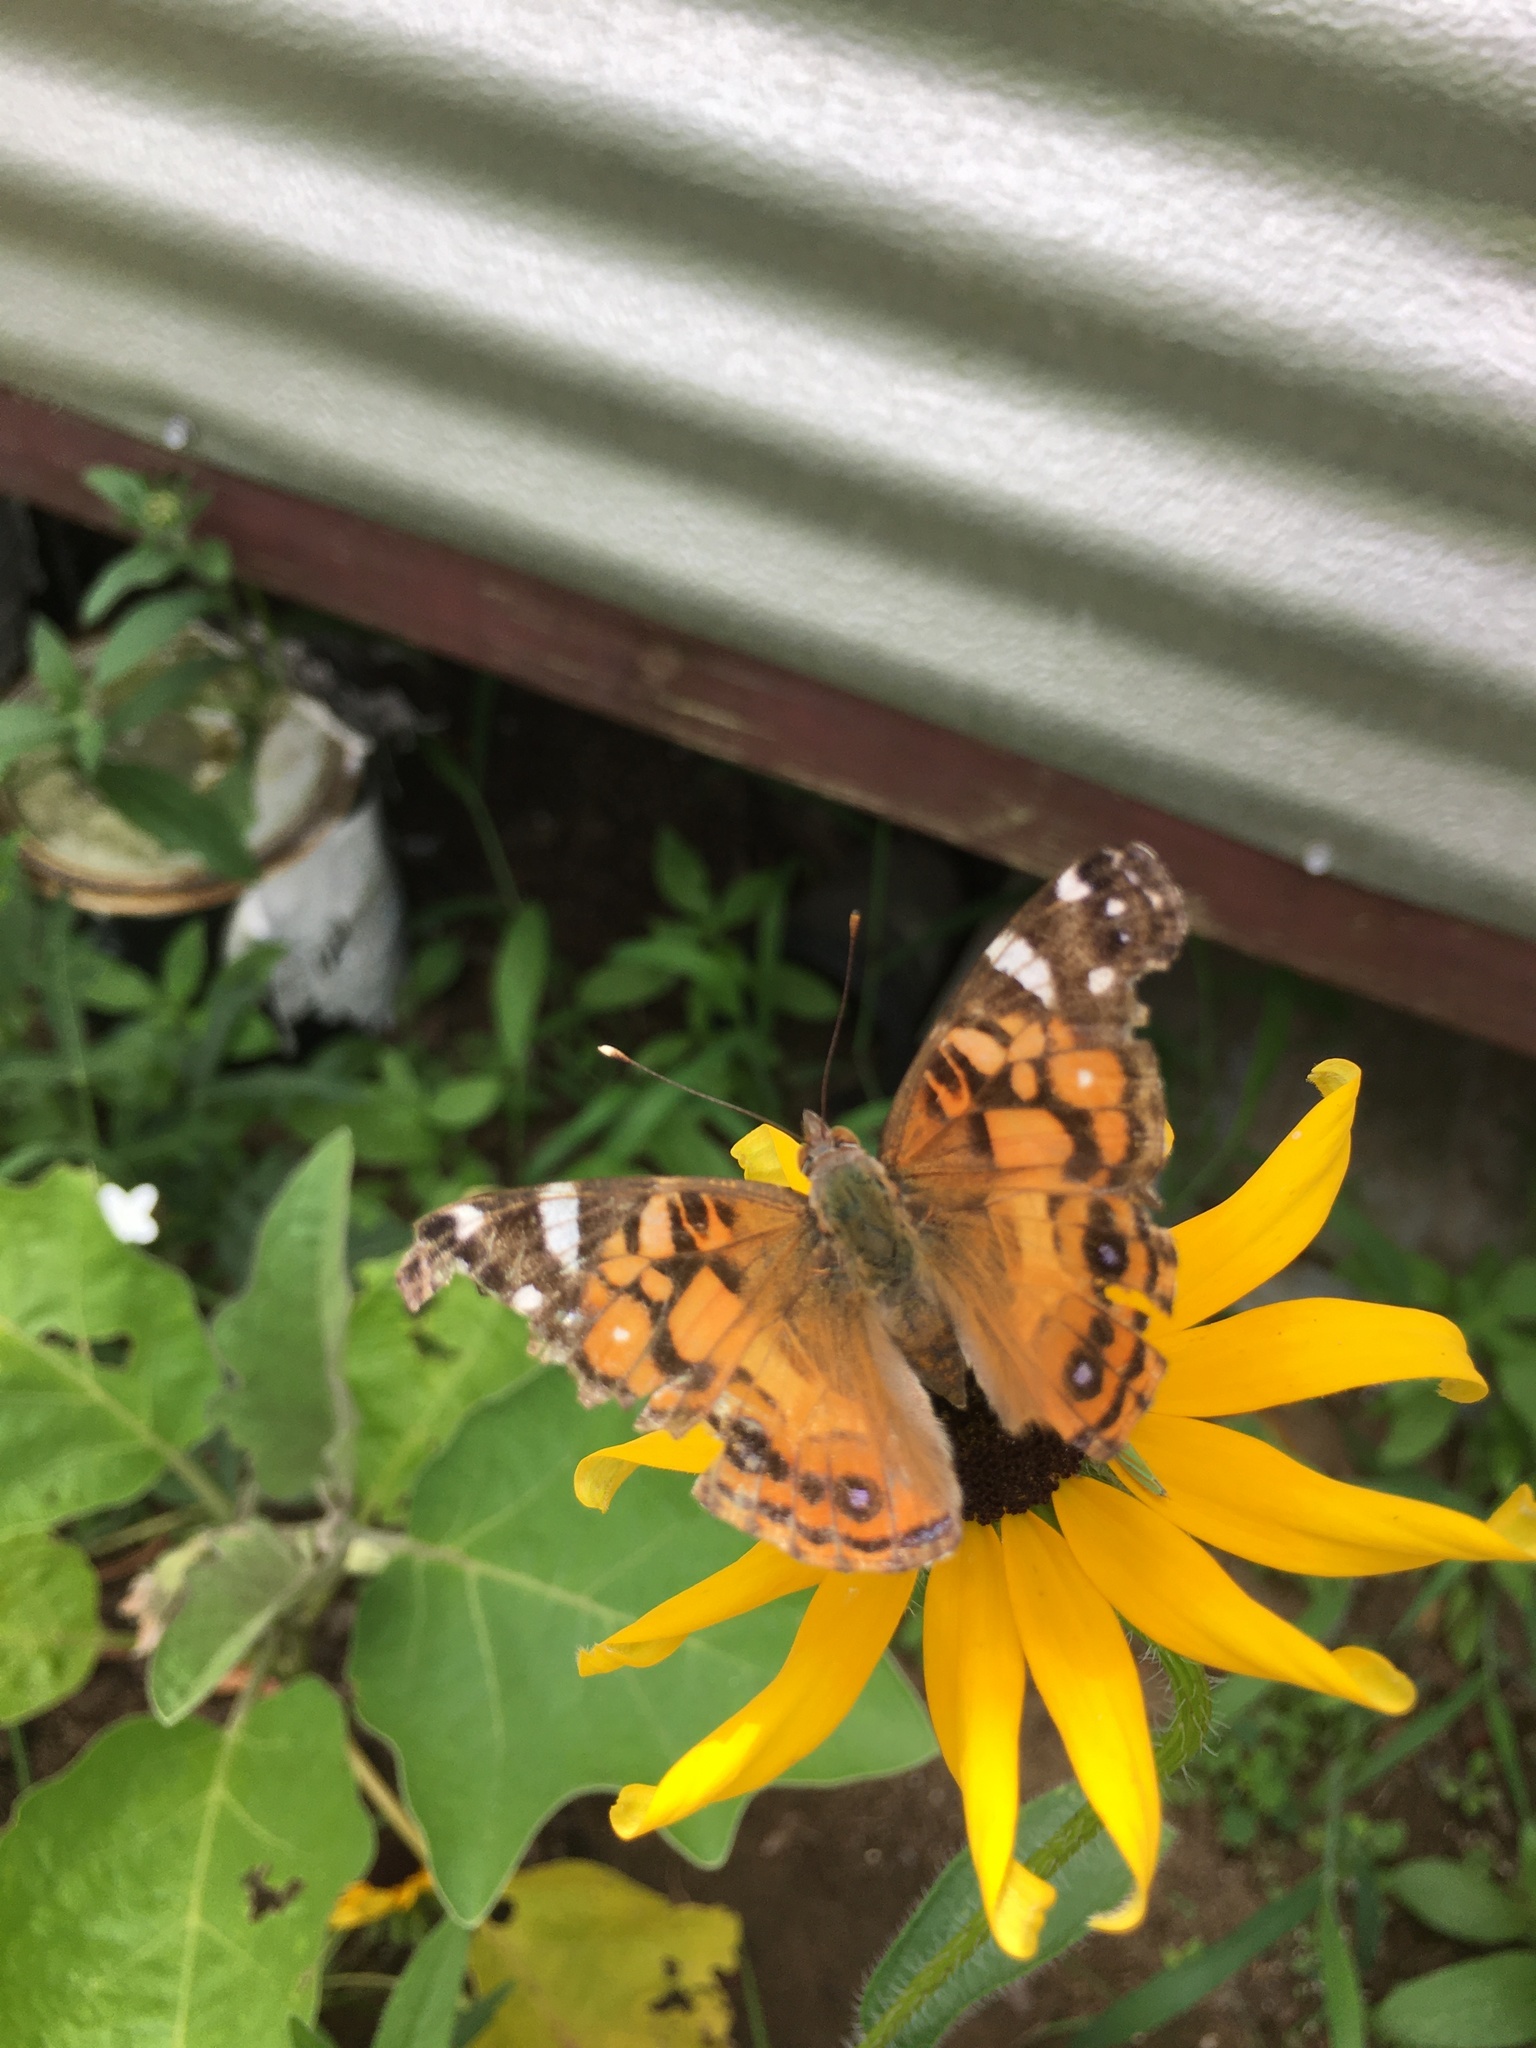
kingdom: Animalia
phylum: Arthropoda
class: Insecta
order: Lepidoptera
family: Nymphalidae
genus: Vanessa
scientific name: Vanessa virginiensis
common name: American lady
